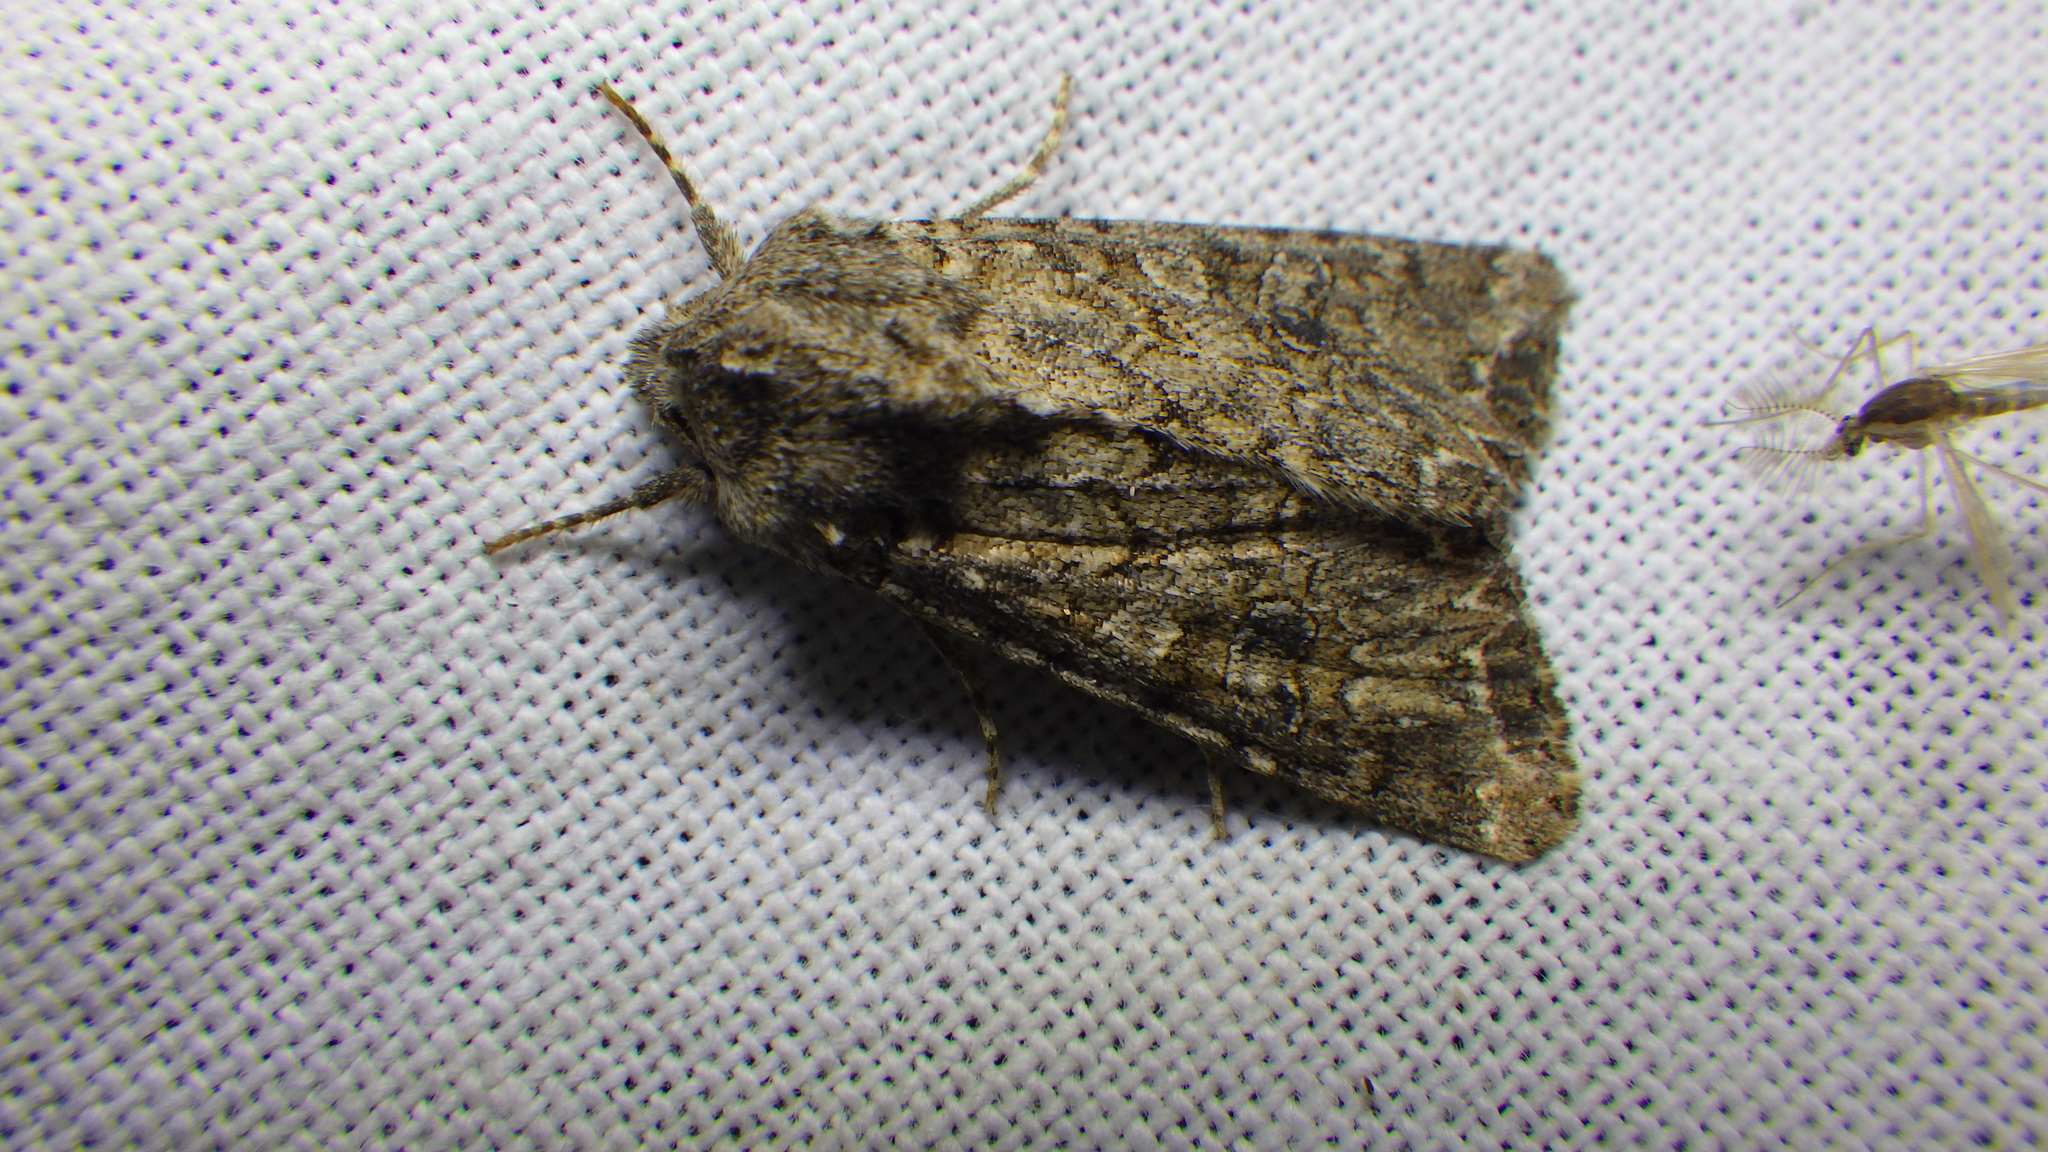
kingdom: Animalia
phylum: Arthropoda
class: Insecta
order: Lepidoptera
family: Noctuidae
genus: Anarta
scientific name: Anarta trifolii
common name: Clover cutworm moth
